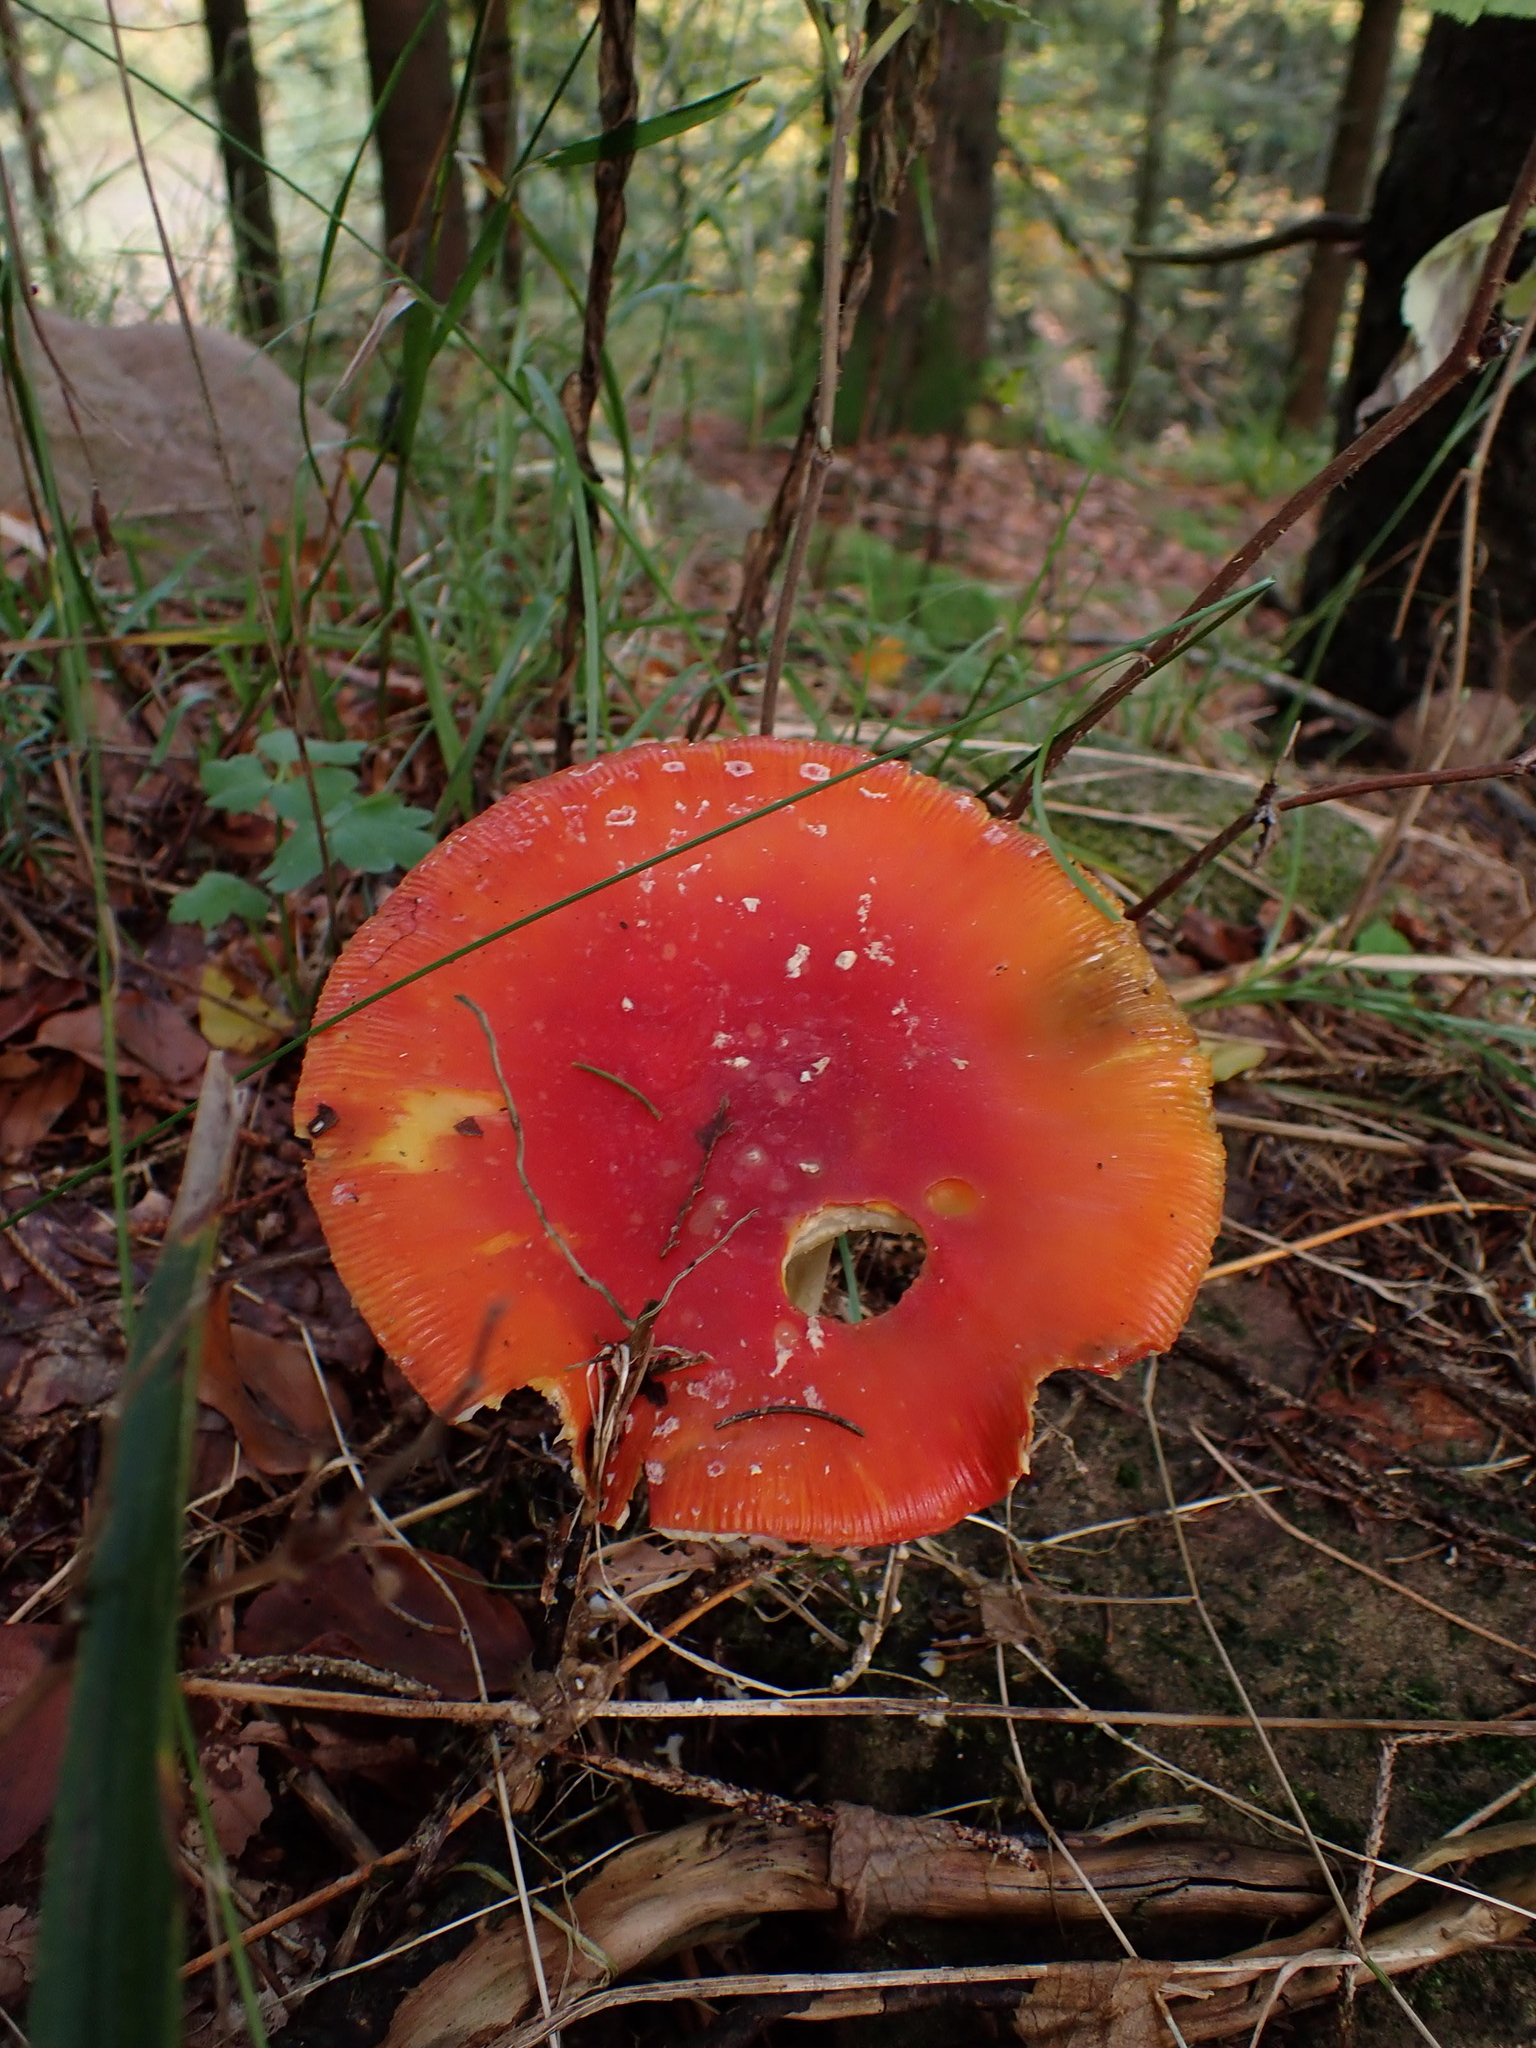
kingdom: Fungi
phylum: Basidiomycota
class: Agaricomycetes
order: Agaricales
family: Amanitaceae
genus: Amanita
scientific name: Amanita muscaria
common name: Fly agaric
